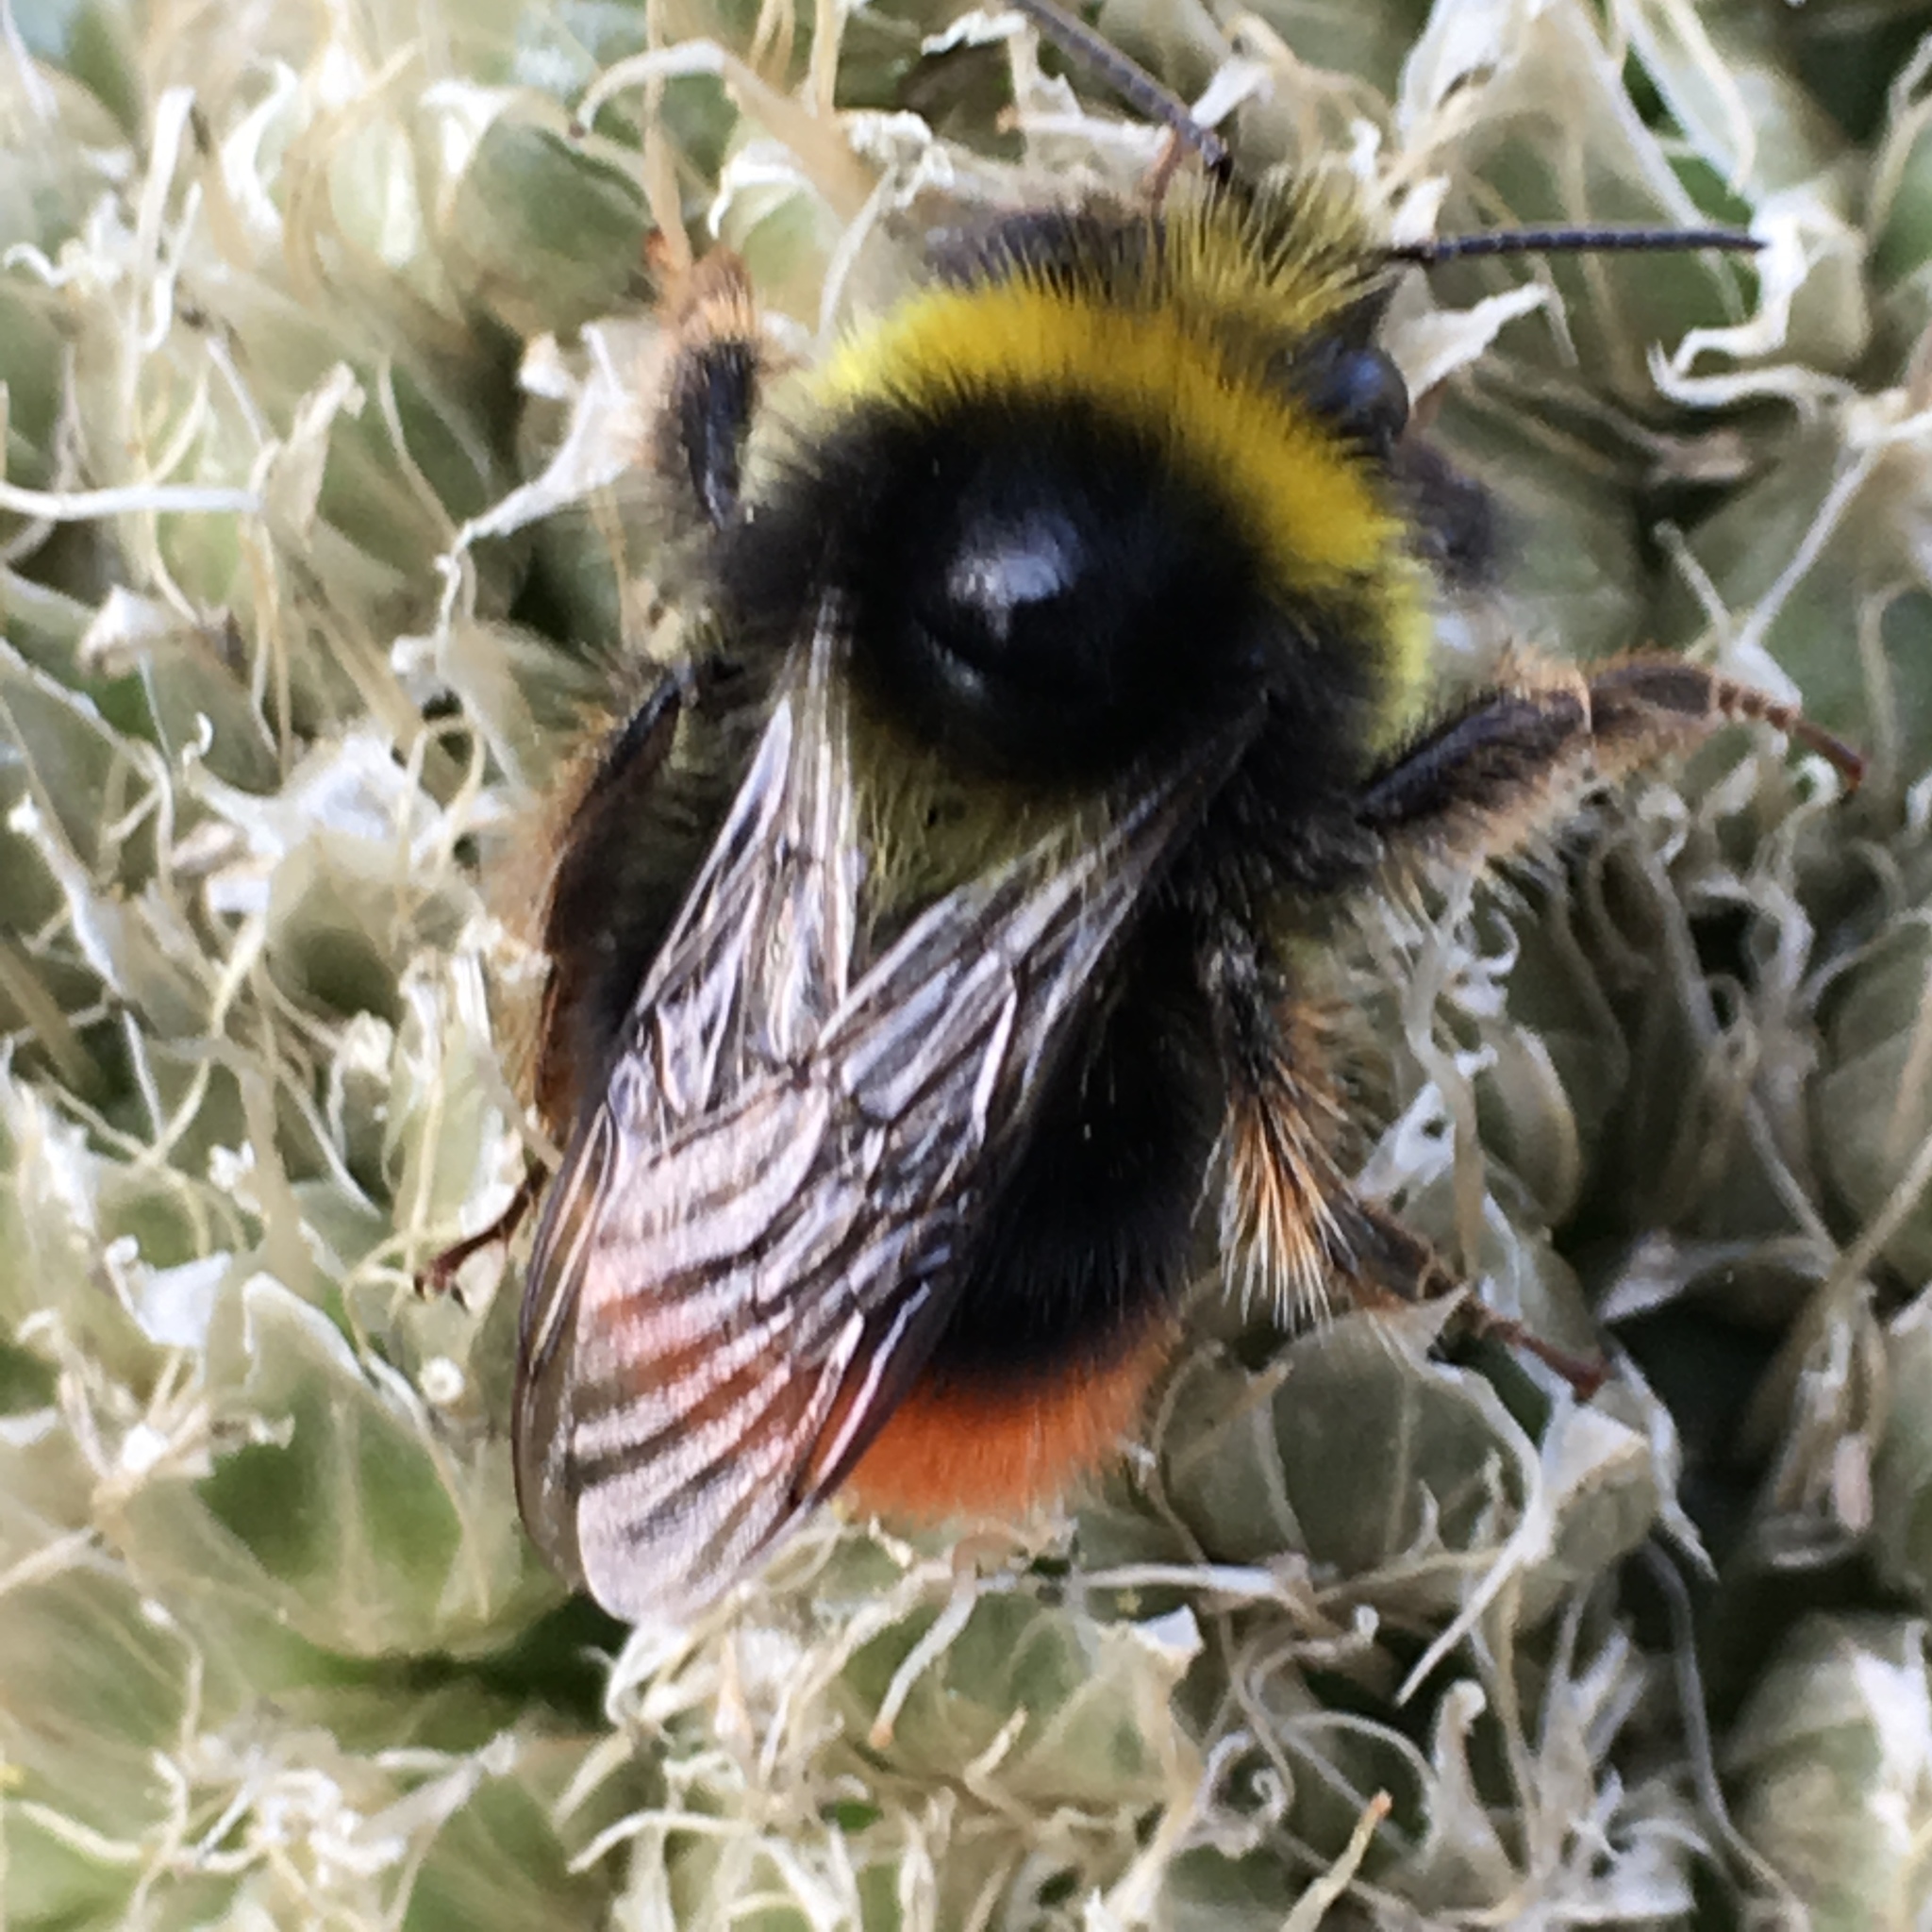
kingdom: Animalia
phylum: Arthropoda
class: Insecta
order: Hymenoptera
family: Apidae
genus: Bombus
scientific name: Bombus lapidarius
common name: Large red-tailed humble-bee
